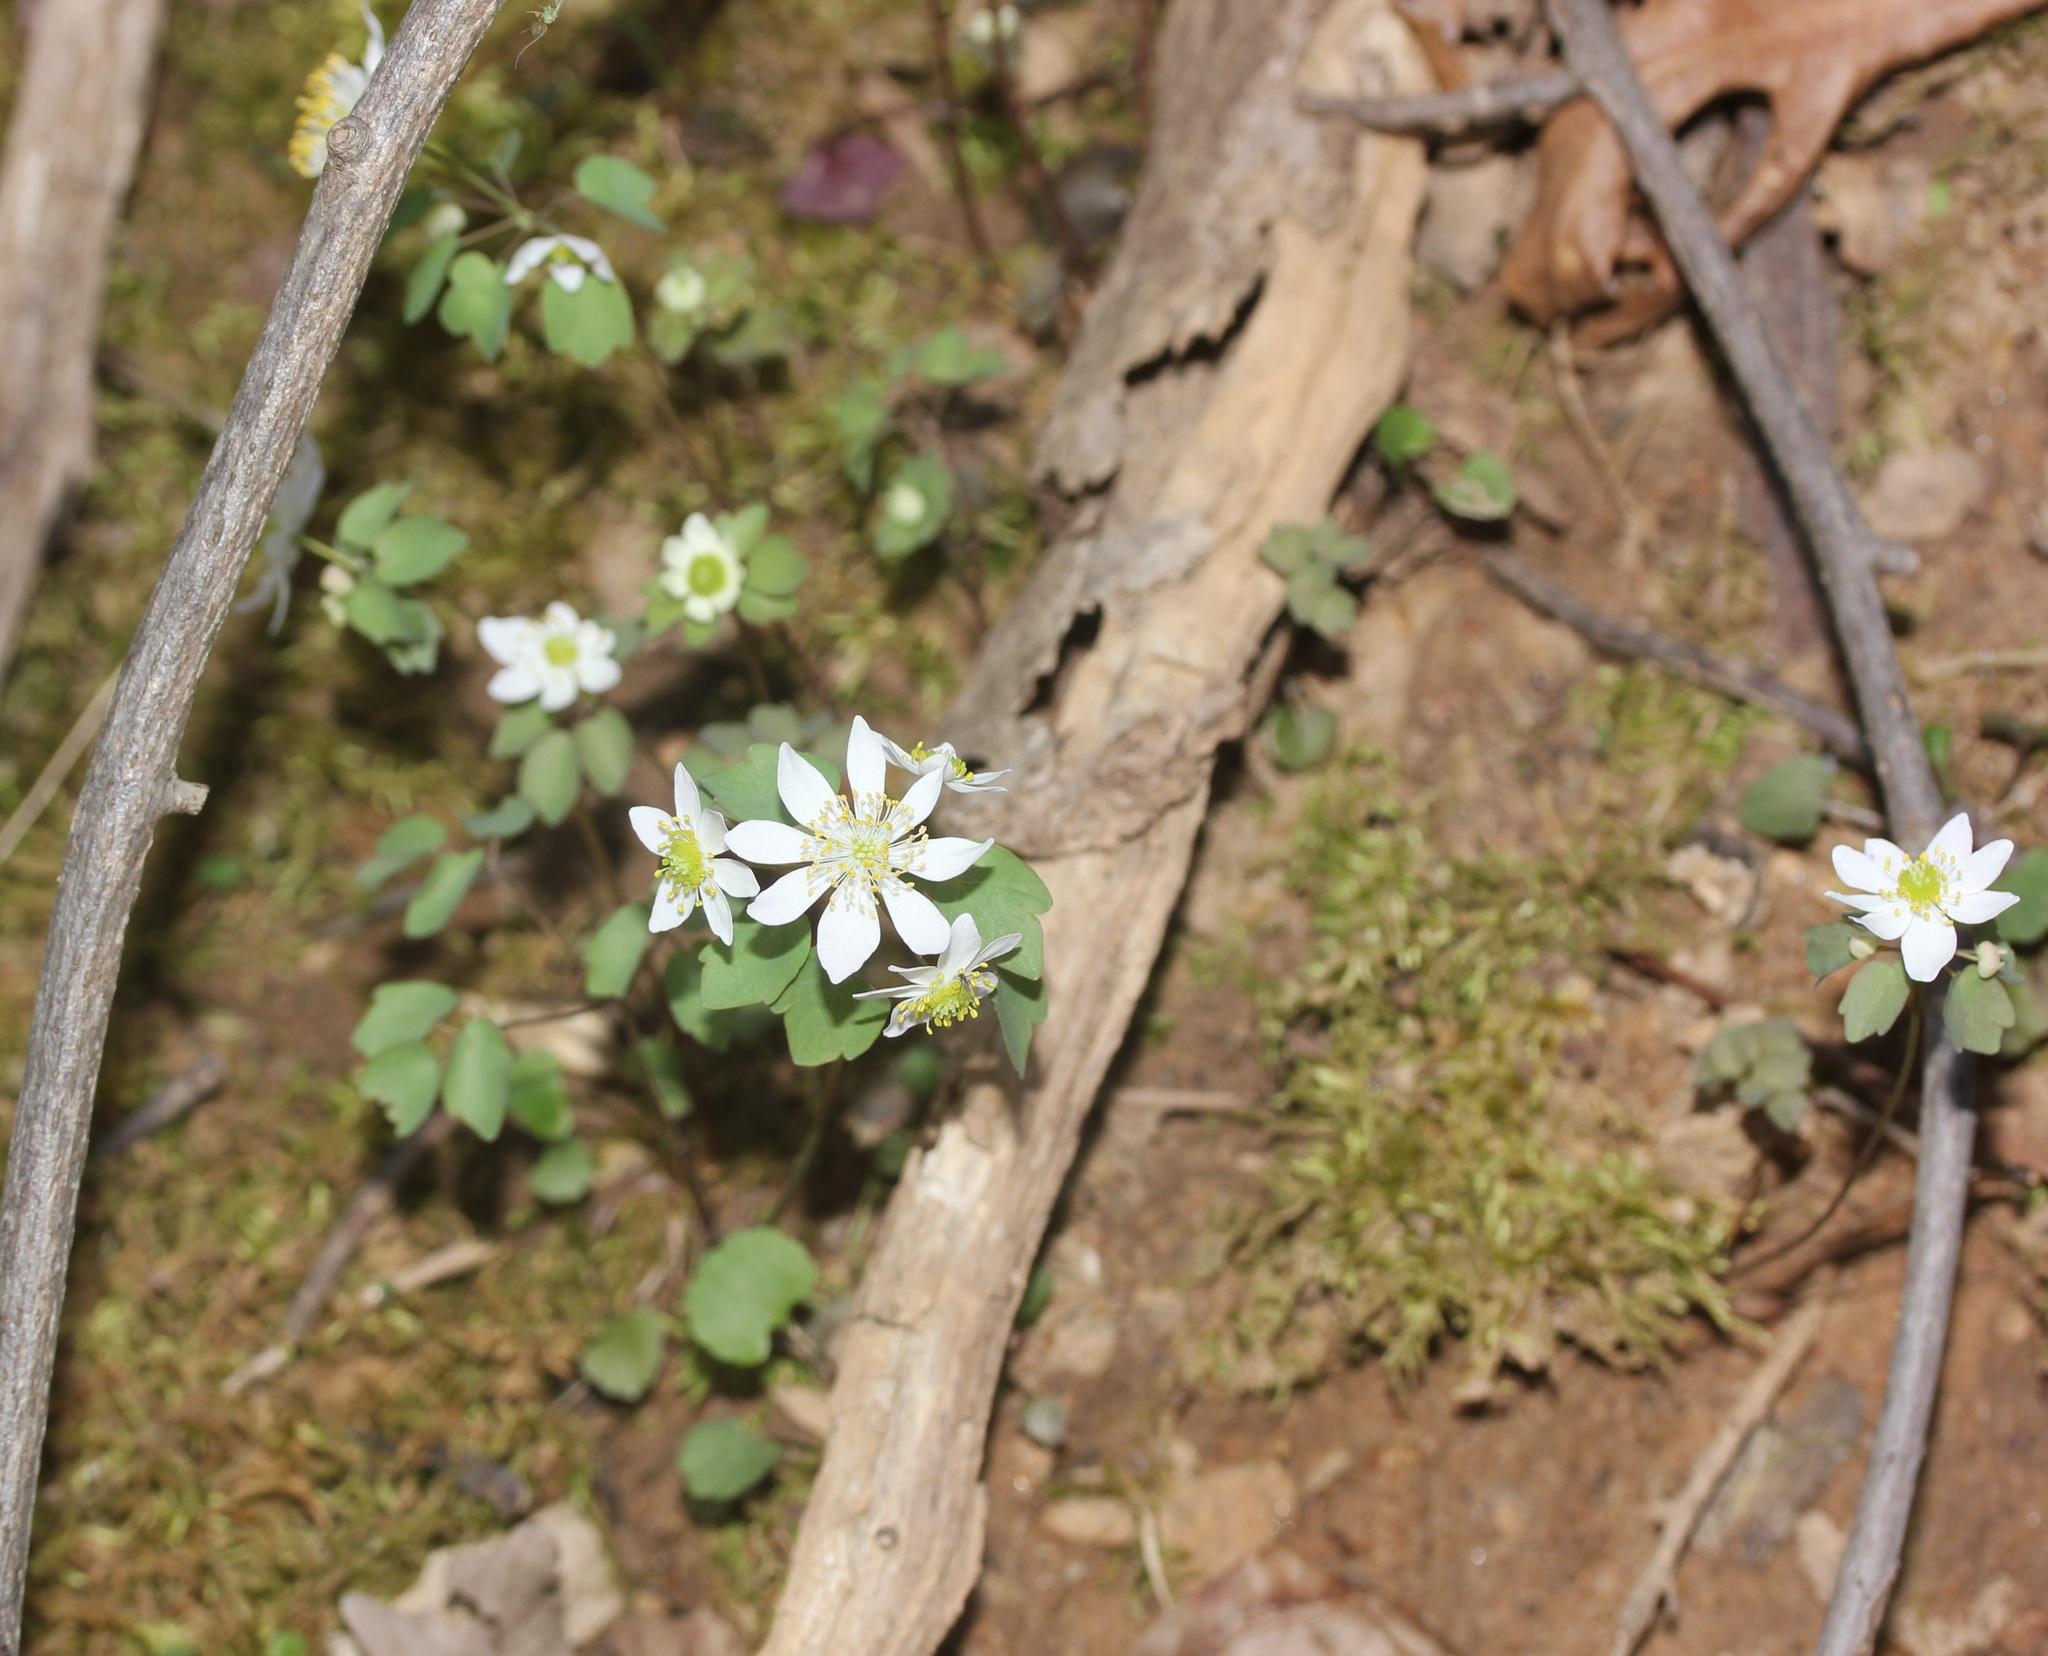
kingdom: Plantae
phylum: Tracheophyta
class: Magnoliopsida
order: Ranunculales
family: Ranunculaceae
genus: Thalictrum
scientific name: Thalictrum thalictroides
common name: Rue-anemone
